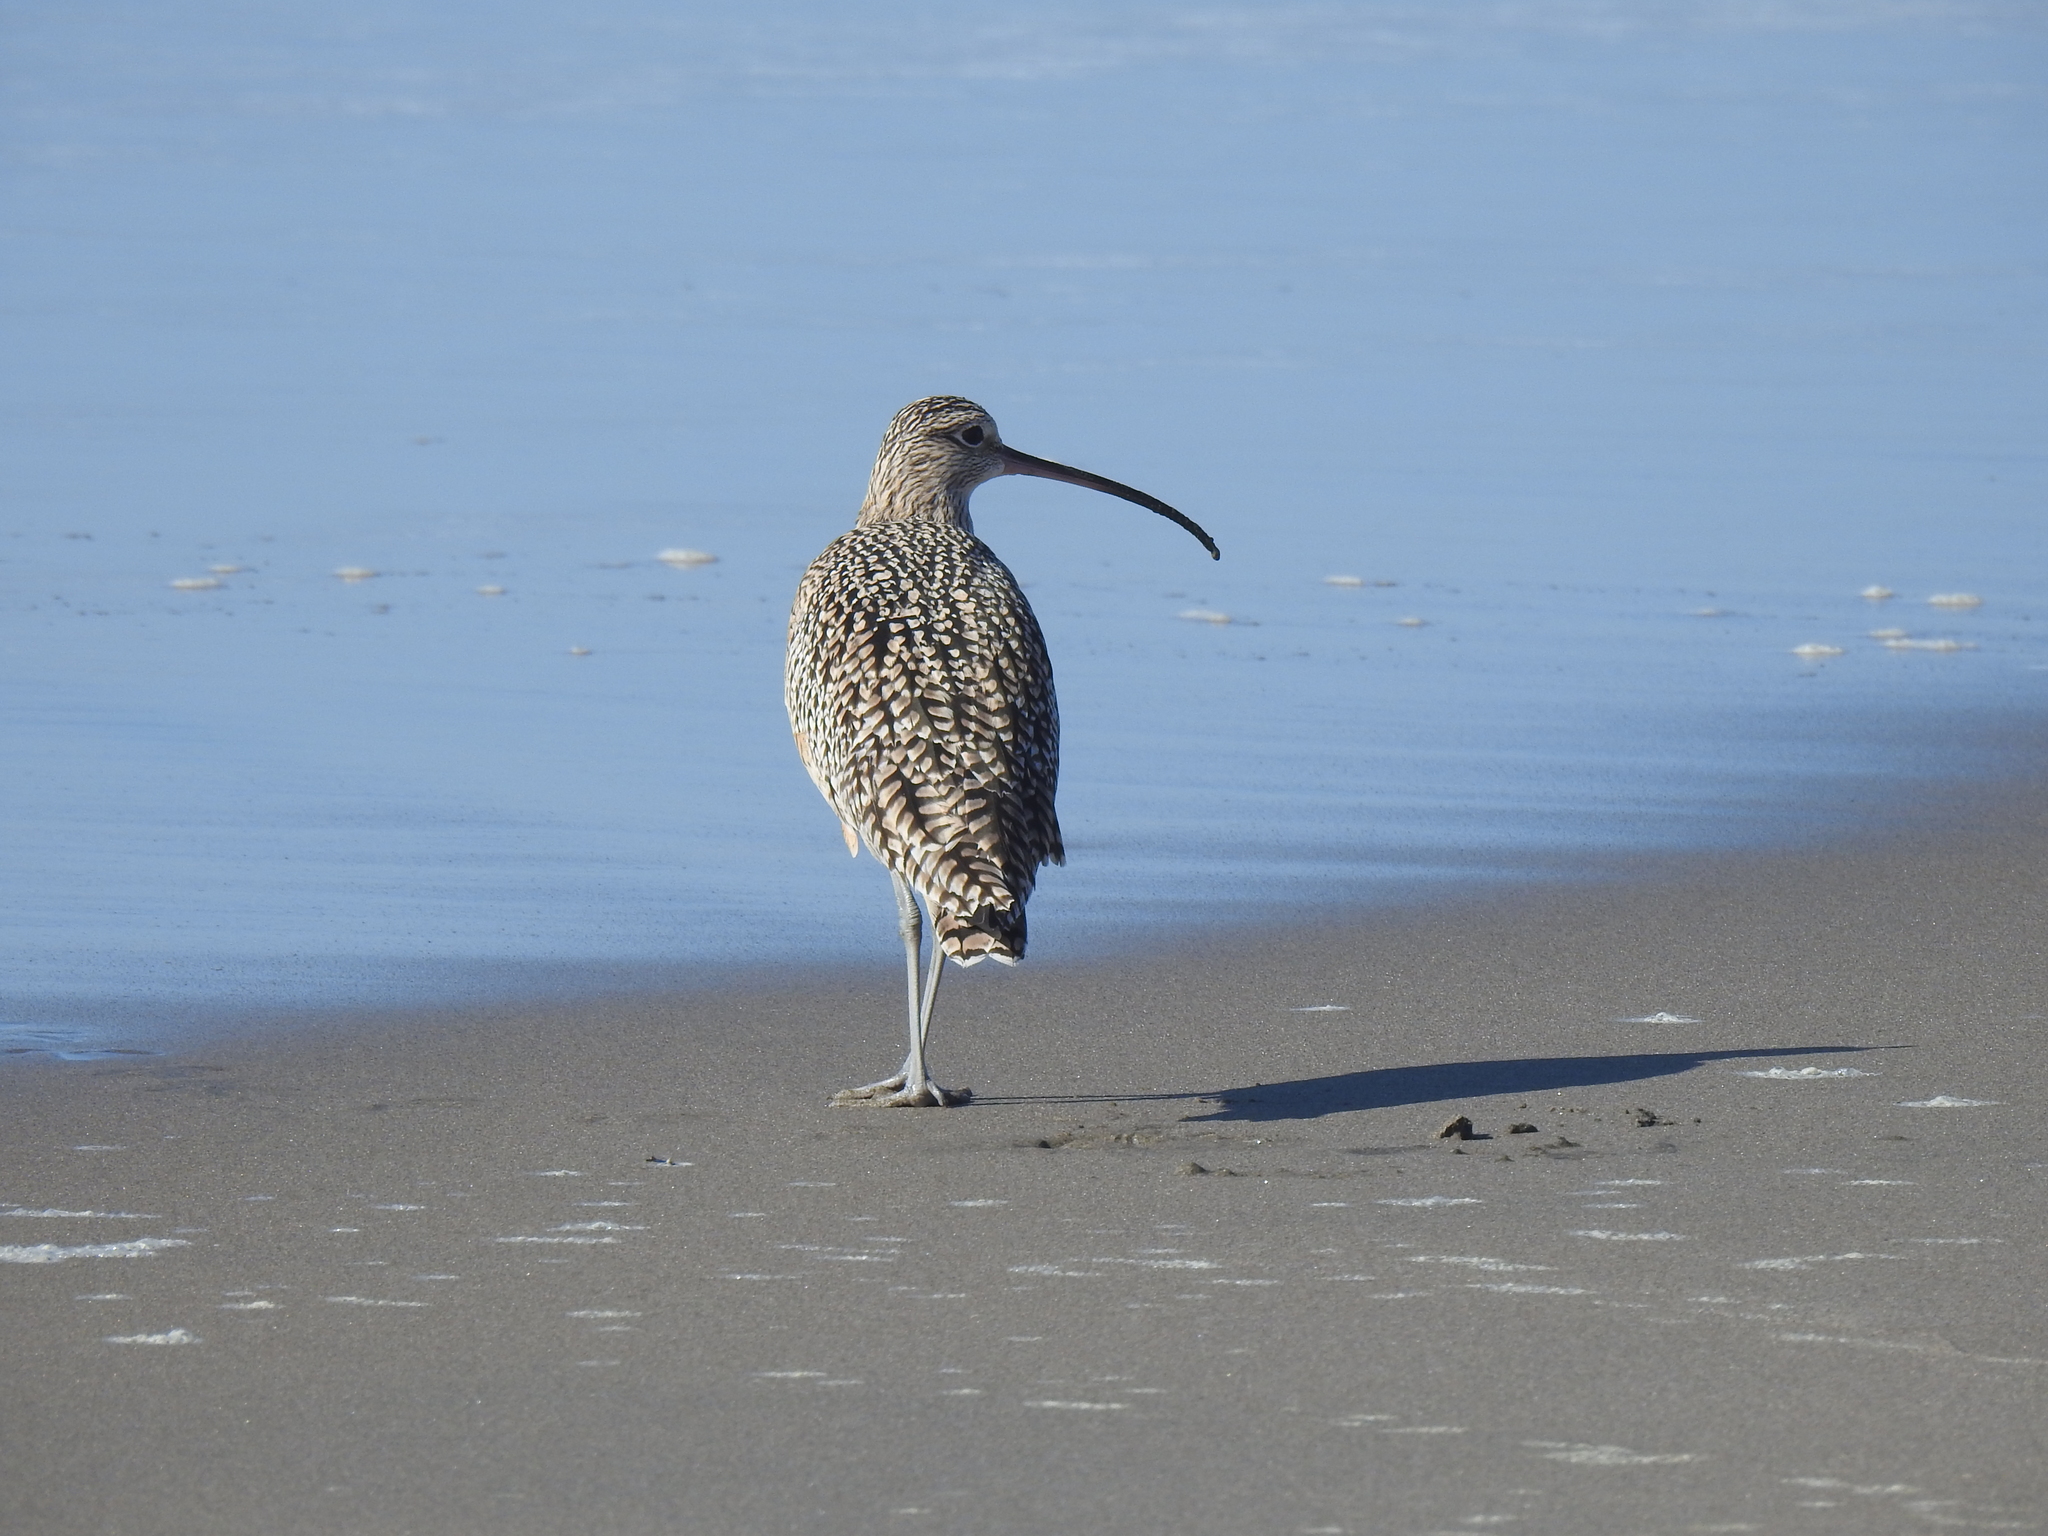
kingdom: Animalia
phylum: Chordata
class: Aves
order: Charadriiformes
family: Scolopacidae
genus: Numenius
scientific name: Numenius americanus
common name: Long-billed curlew
